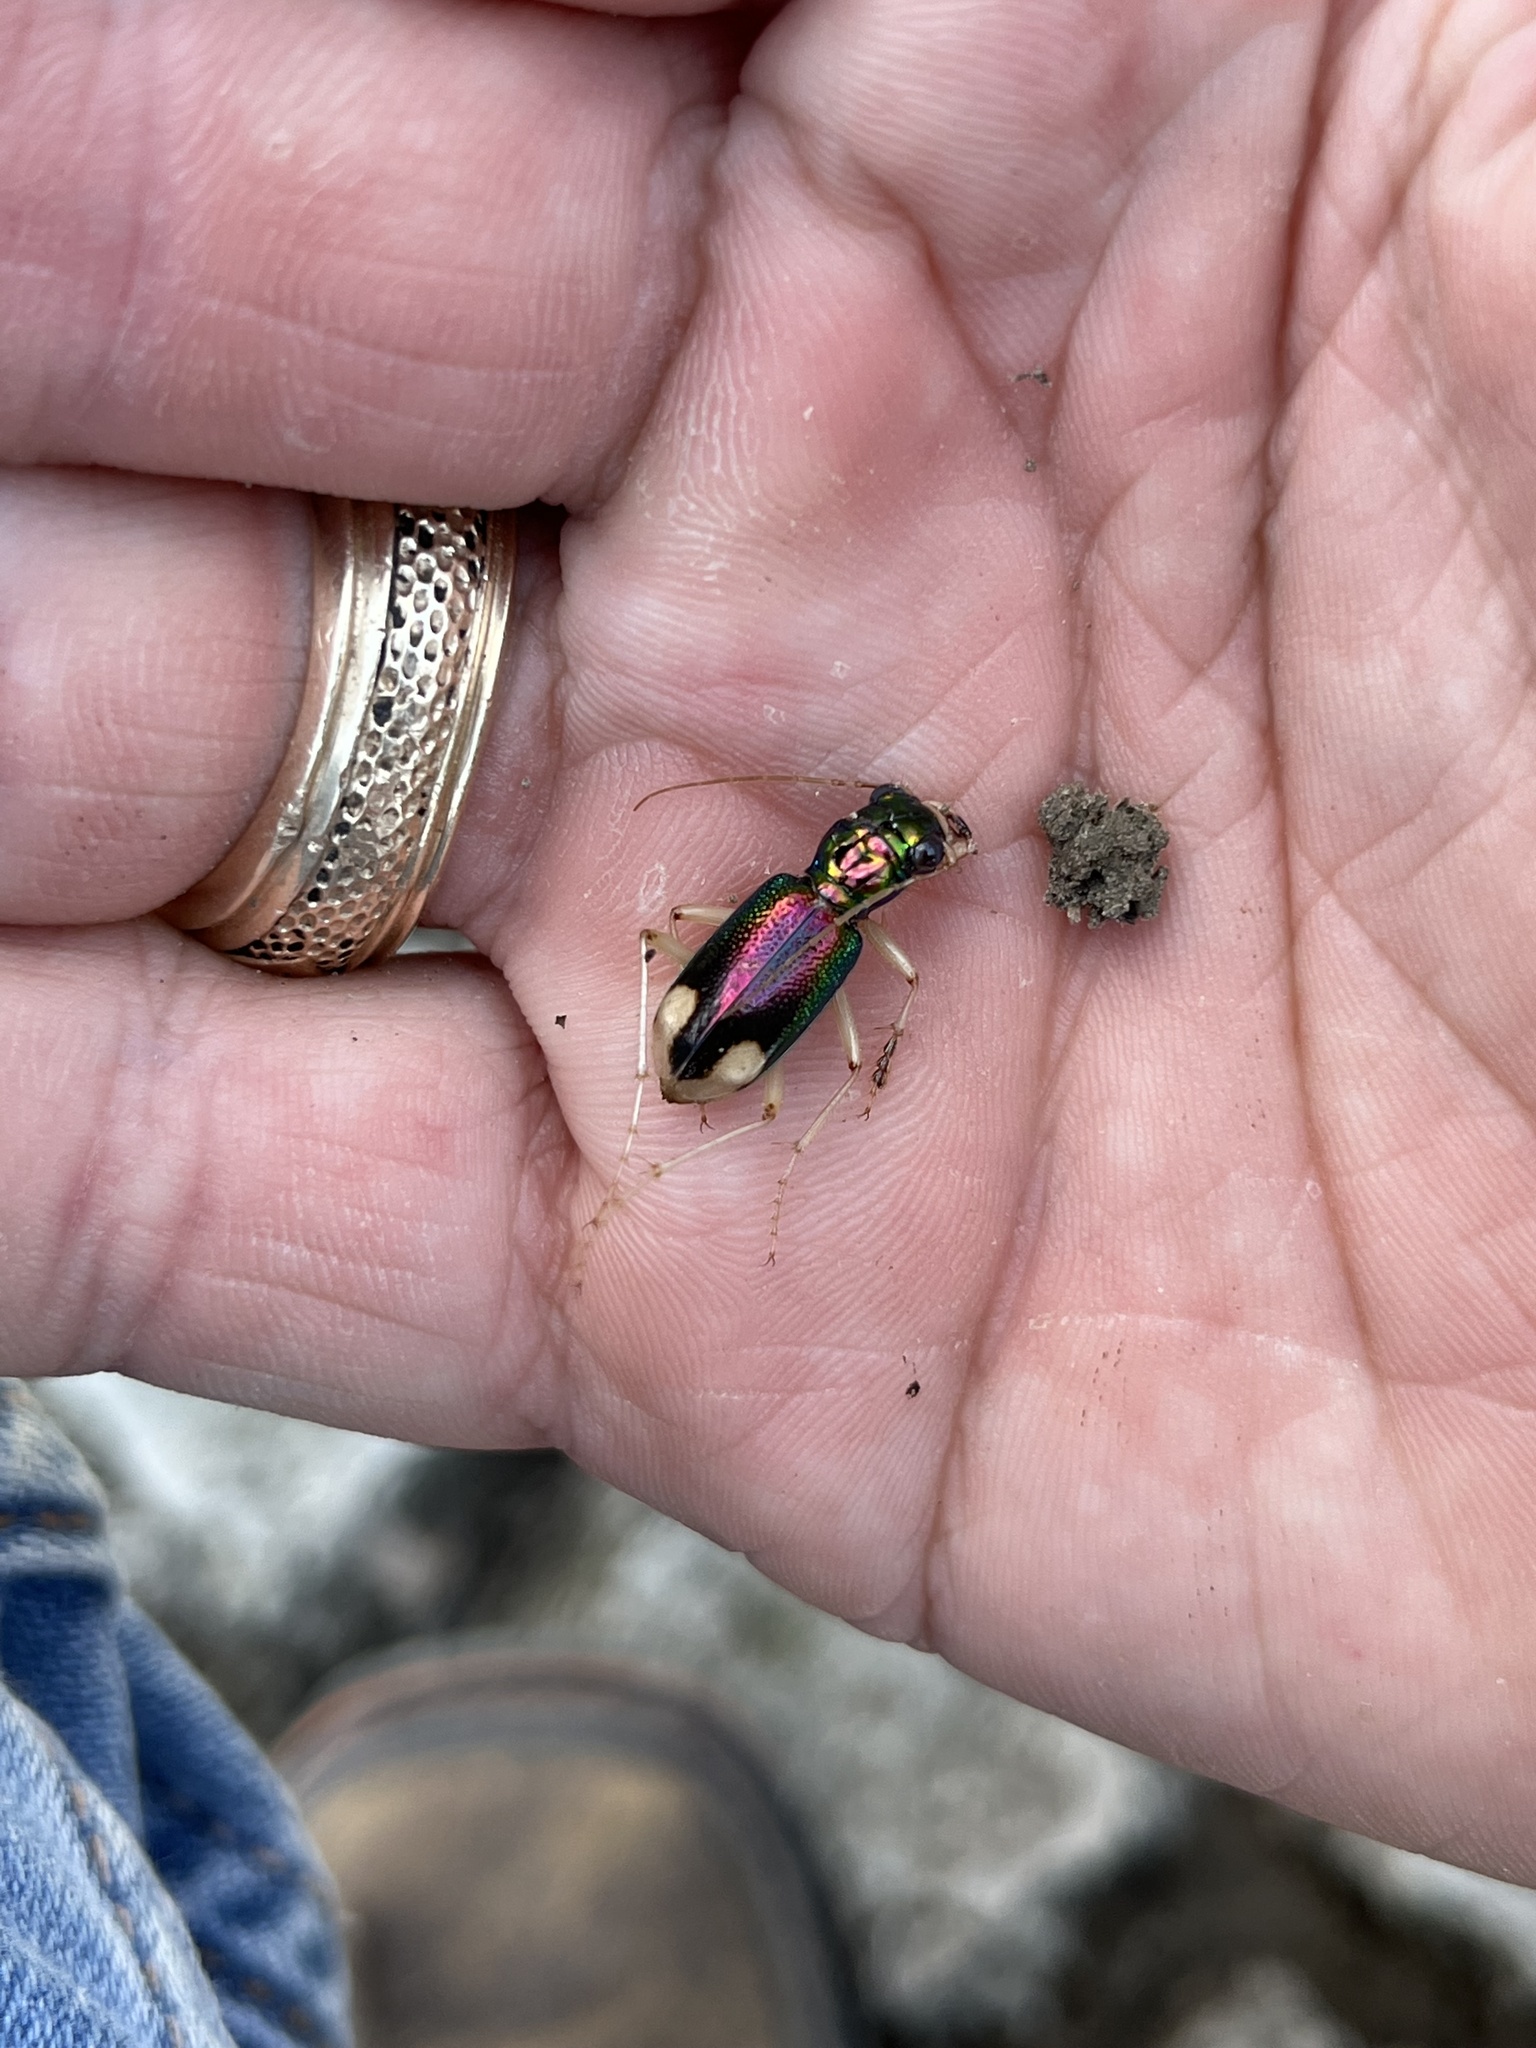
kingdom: Animalia
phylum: Arthropoda
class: Insecta
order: Coleoptera
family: Carabidae
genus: Tetracha
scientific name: Tetracha carolina
